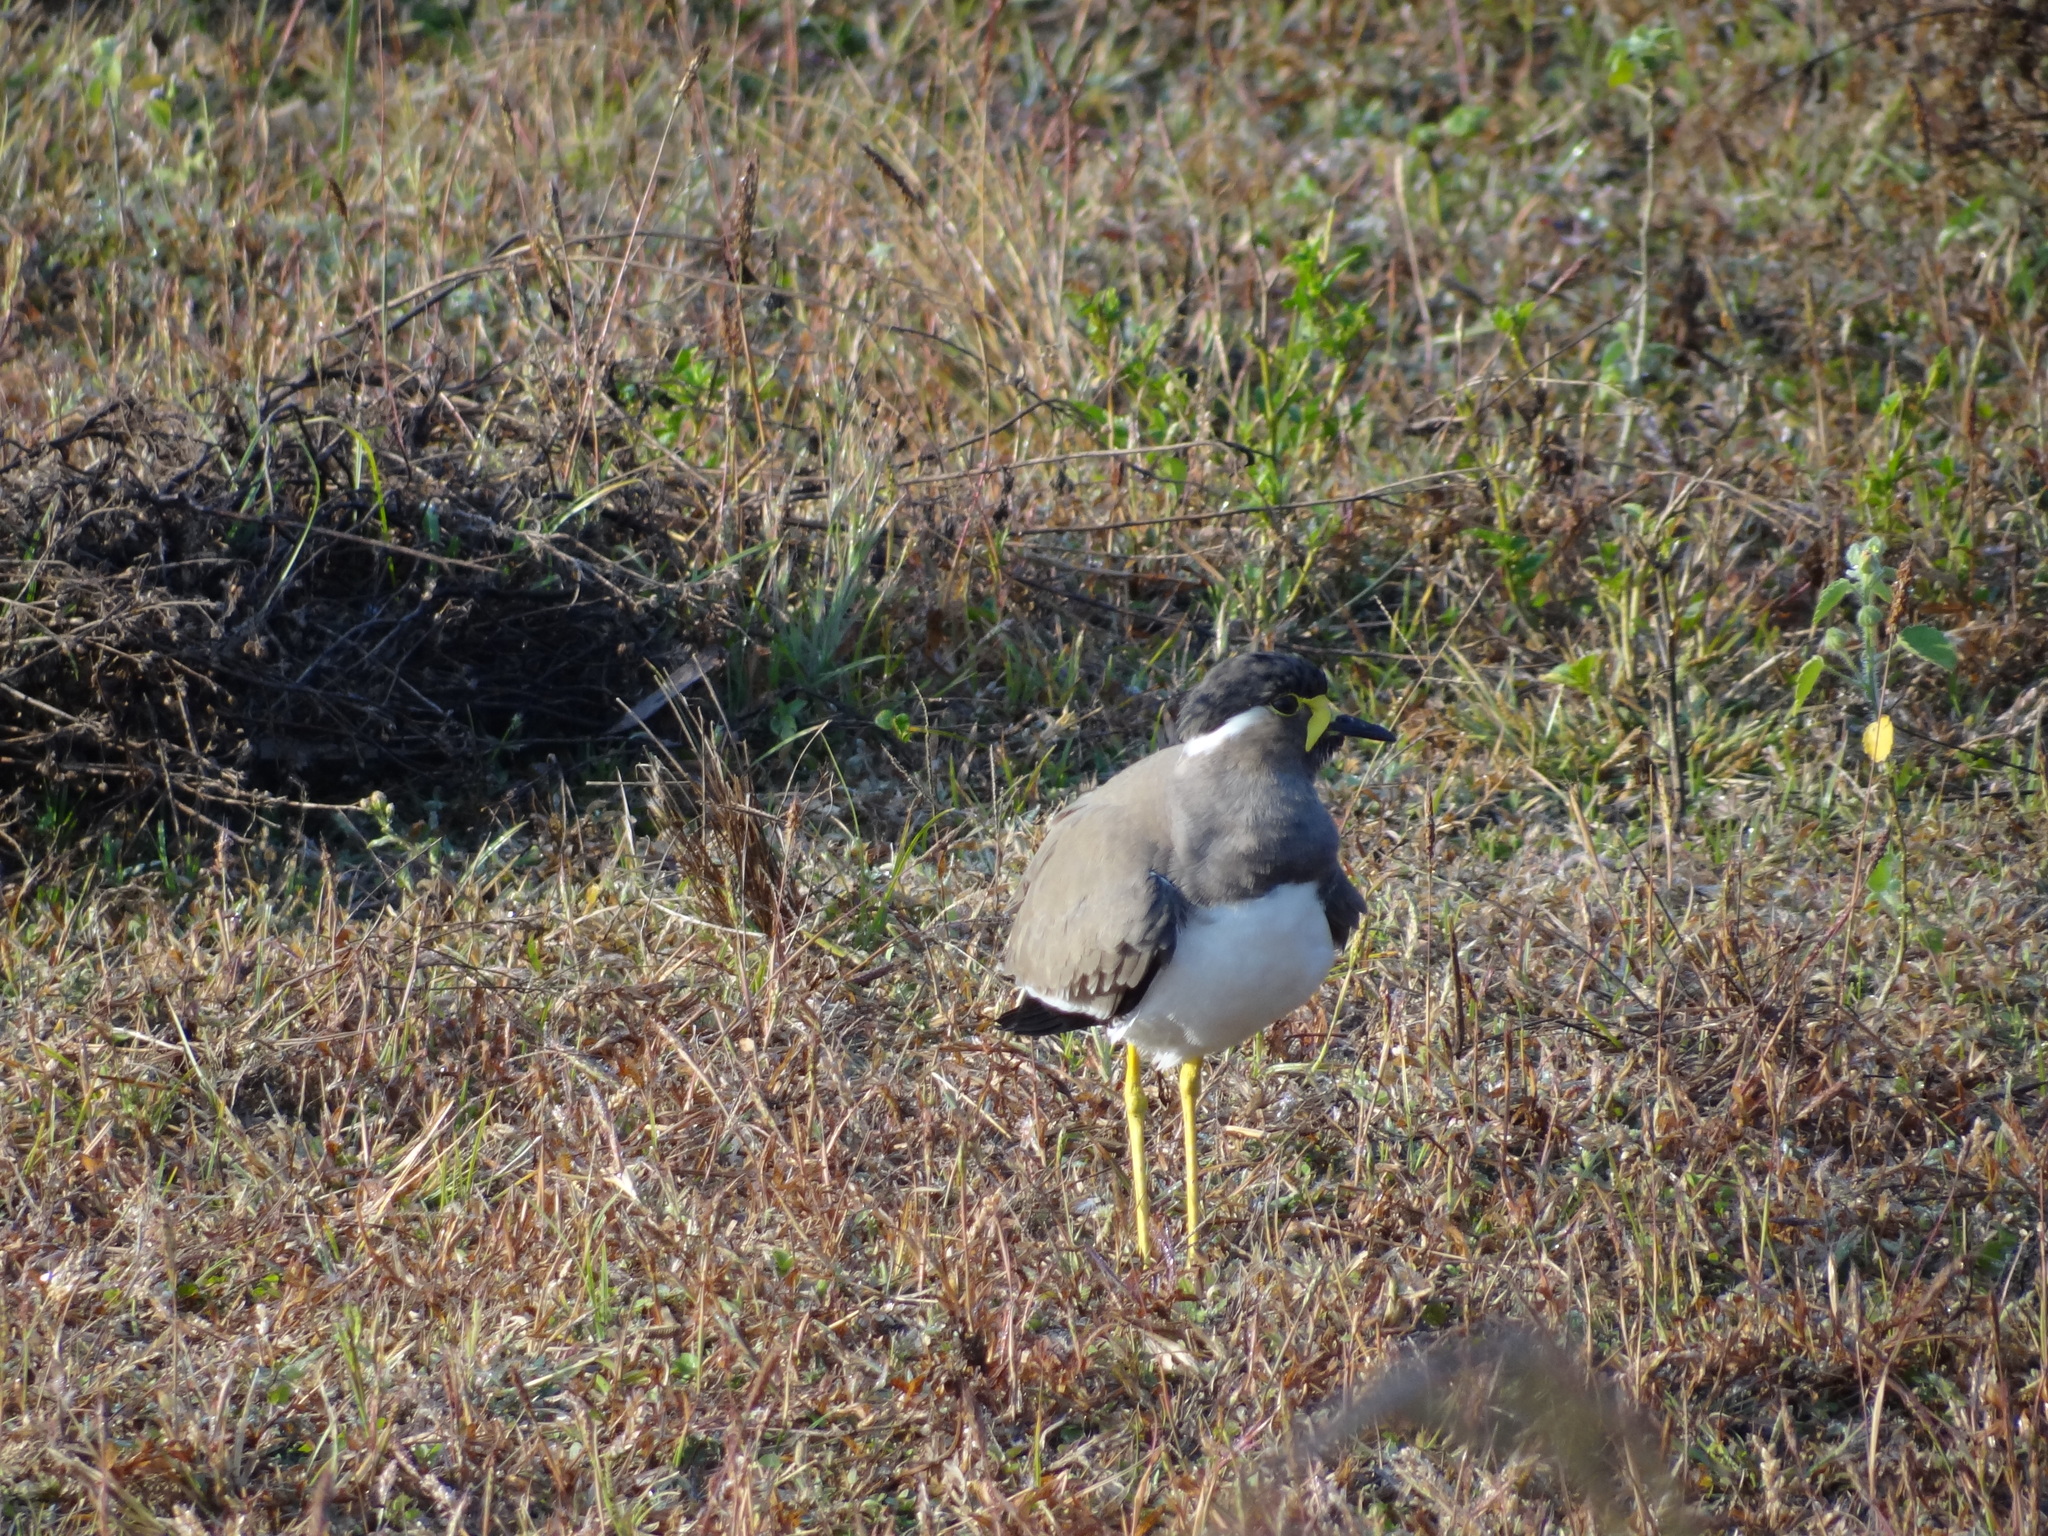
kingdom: Animalia
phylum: Chordata
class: Aves
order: Charadriiformes
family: Charadriidae
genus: Vanellus
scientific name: Vanellus malabaricus
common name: Yellow-wattled lapwing
